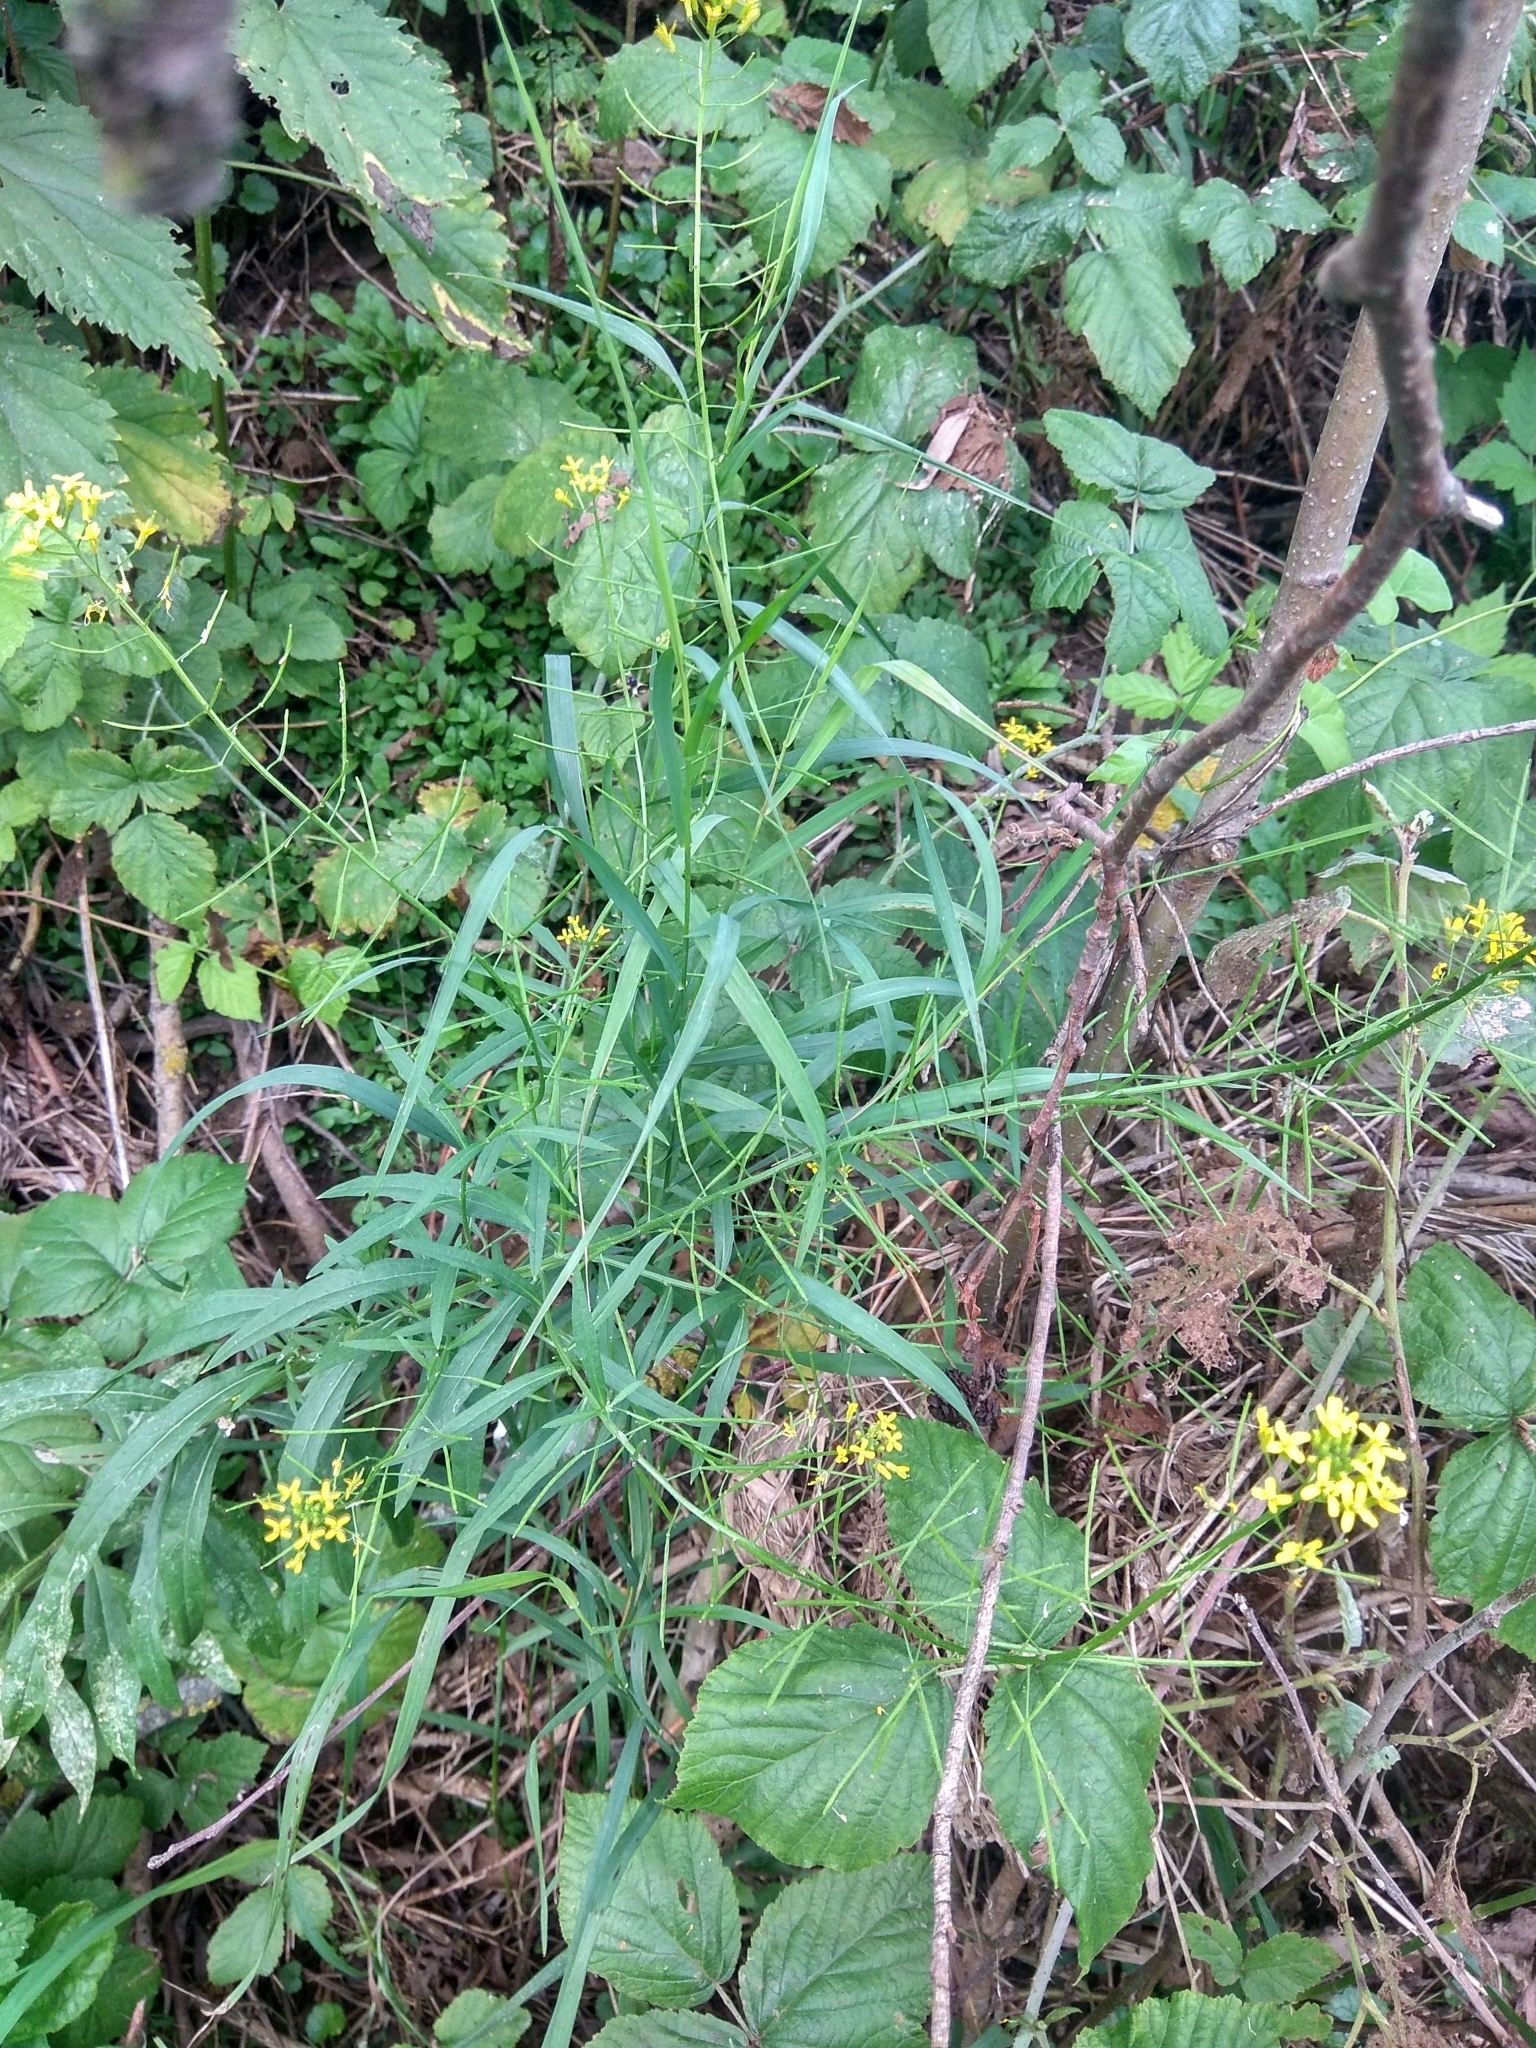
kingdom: Plantae
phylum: Tracheophyta
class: Magnoliopsida
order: Brassicales
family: Brassicaceae
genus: Erysimum
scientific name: Erysimum cheiranthoides
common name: Treacle mustard
